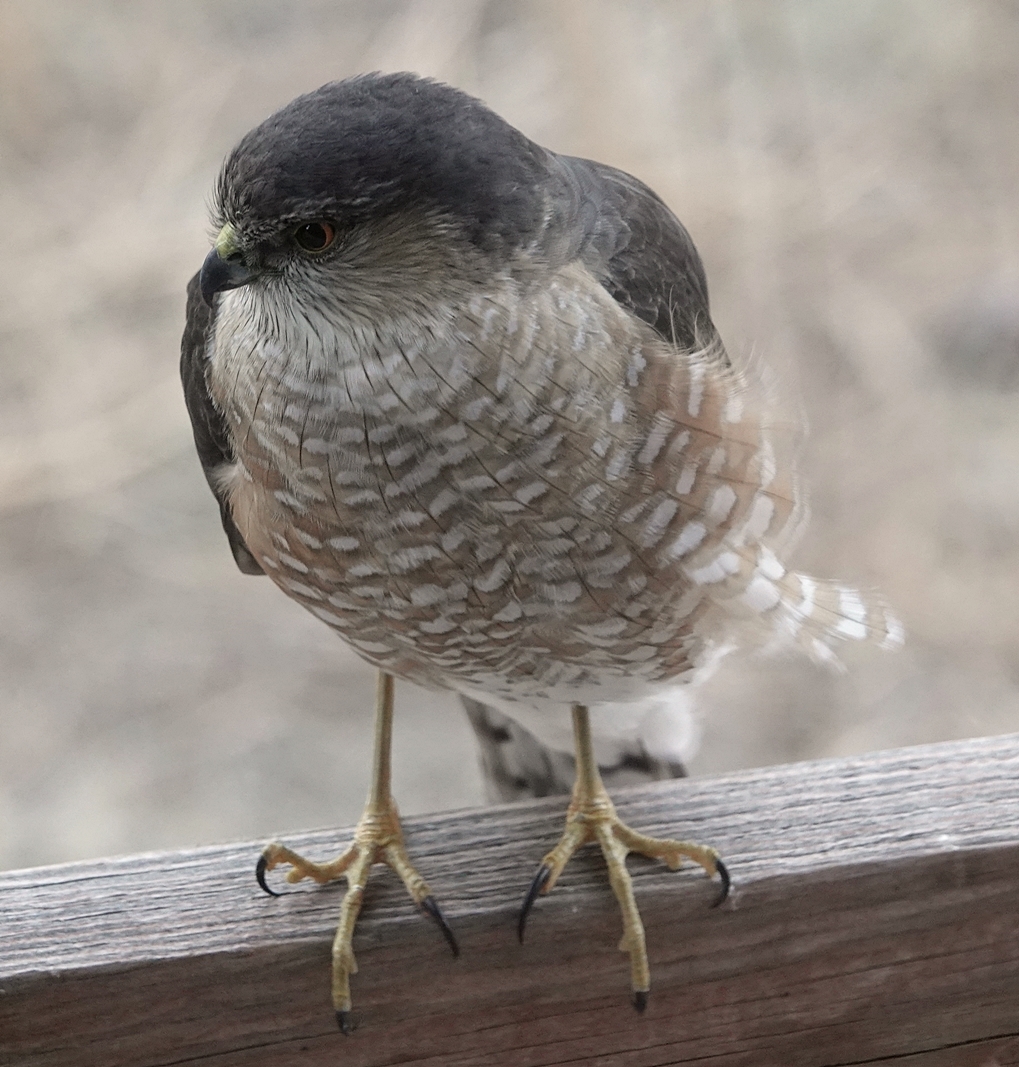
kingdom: Animalia
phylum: Chordata
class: Aves
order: Accipitriformes
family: Accipitridae
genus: Accipiter
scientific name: Accipiter striatus
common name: Sharp-shinned hawk
